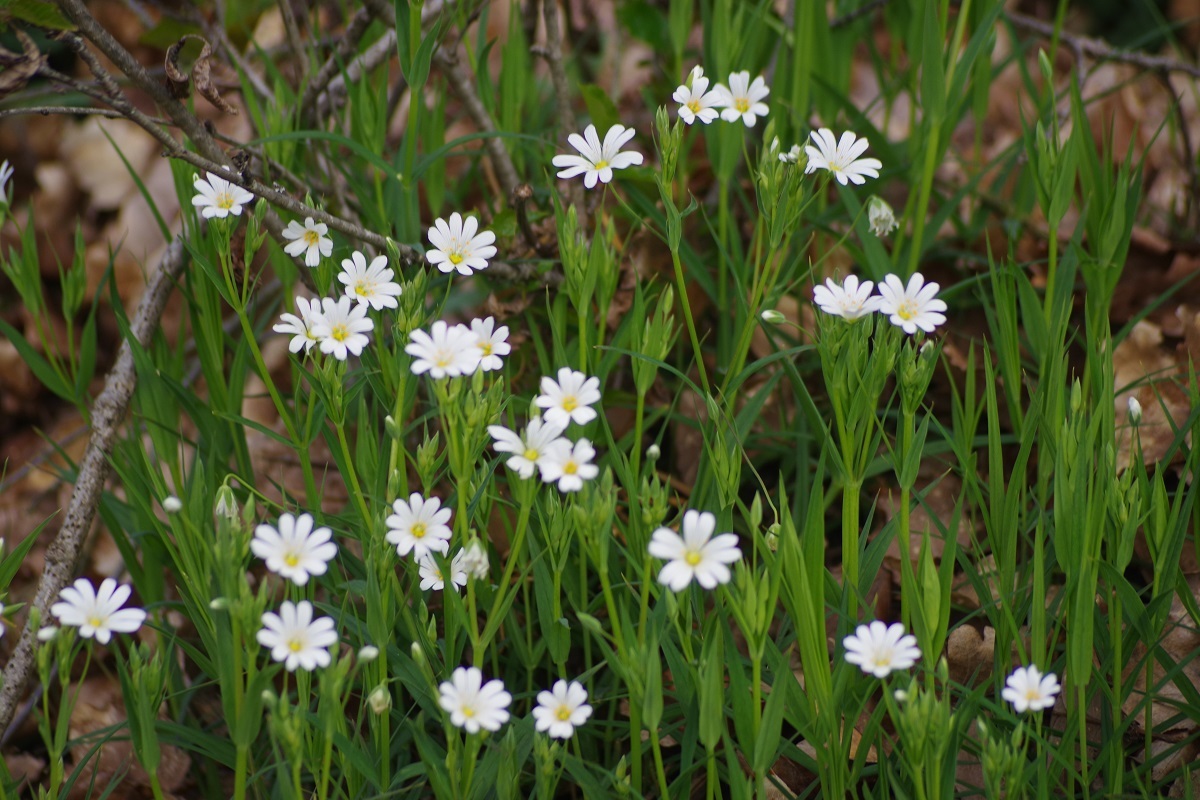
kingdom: Plantae
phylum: Tracheophyta
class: Magnoliopsida
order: Caryophyllales
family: Caryophyllaceae
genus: Rabelera
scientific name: Rabelera holostea
